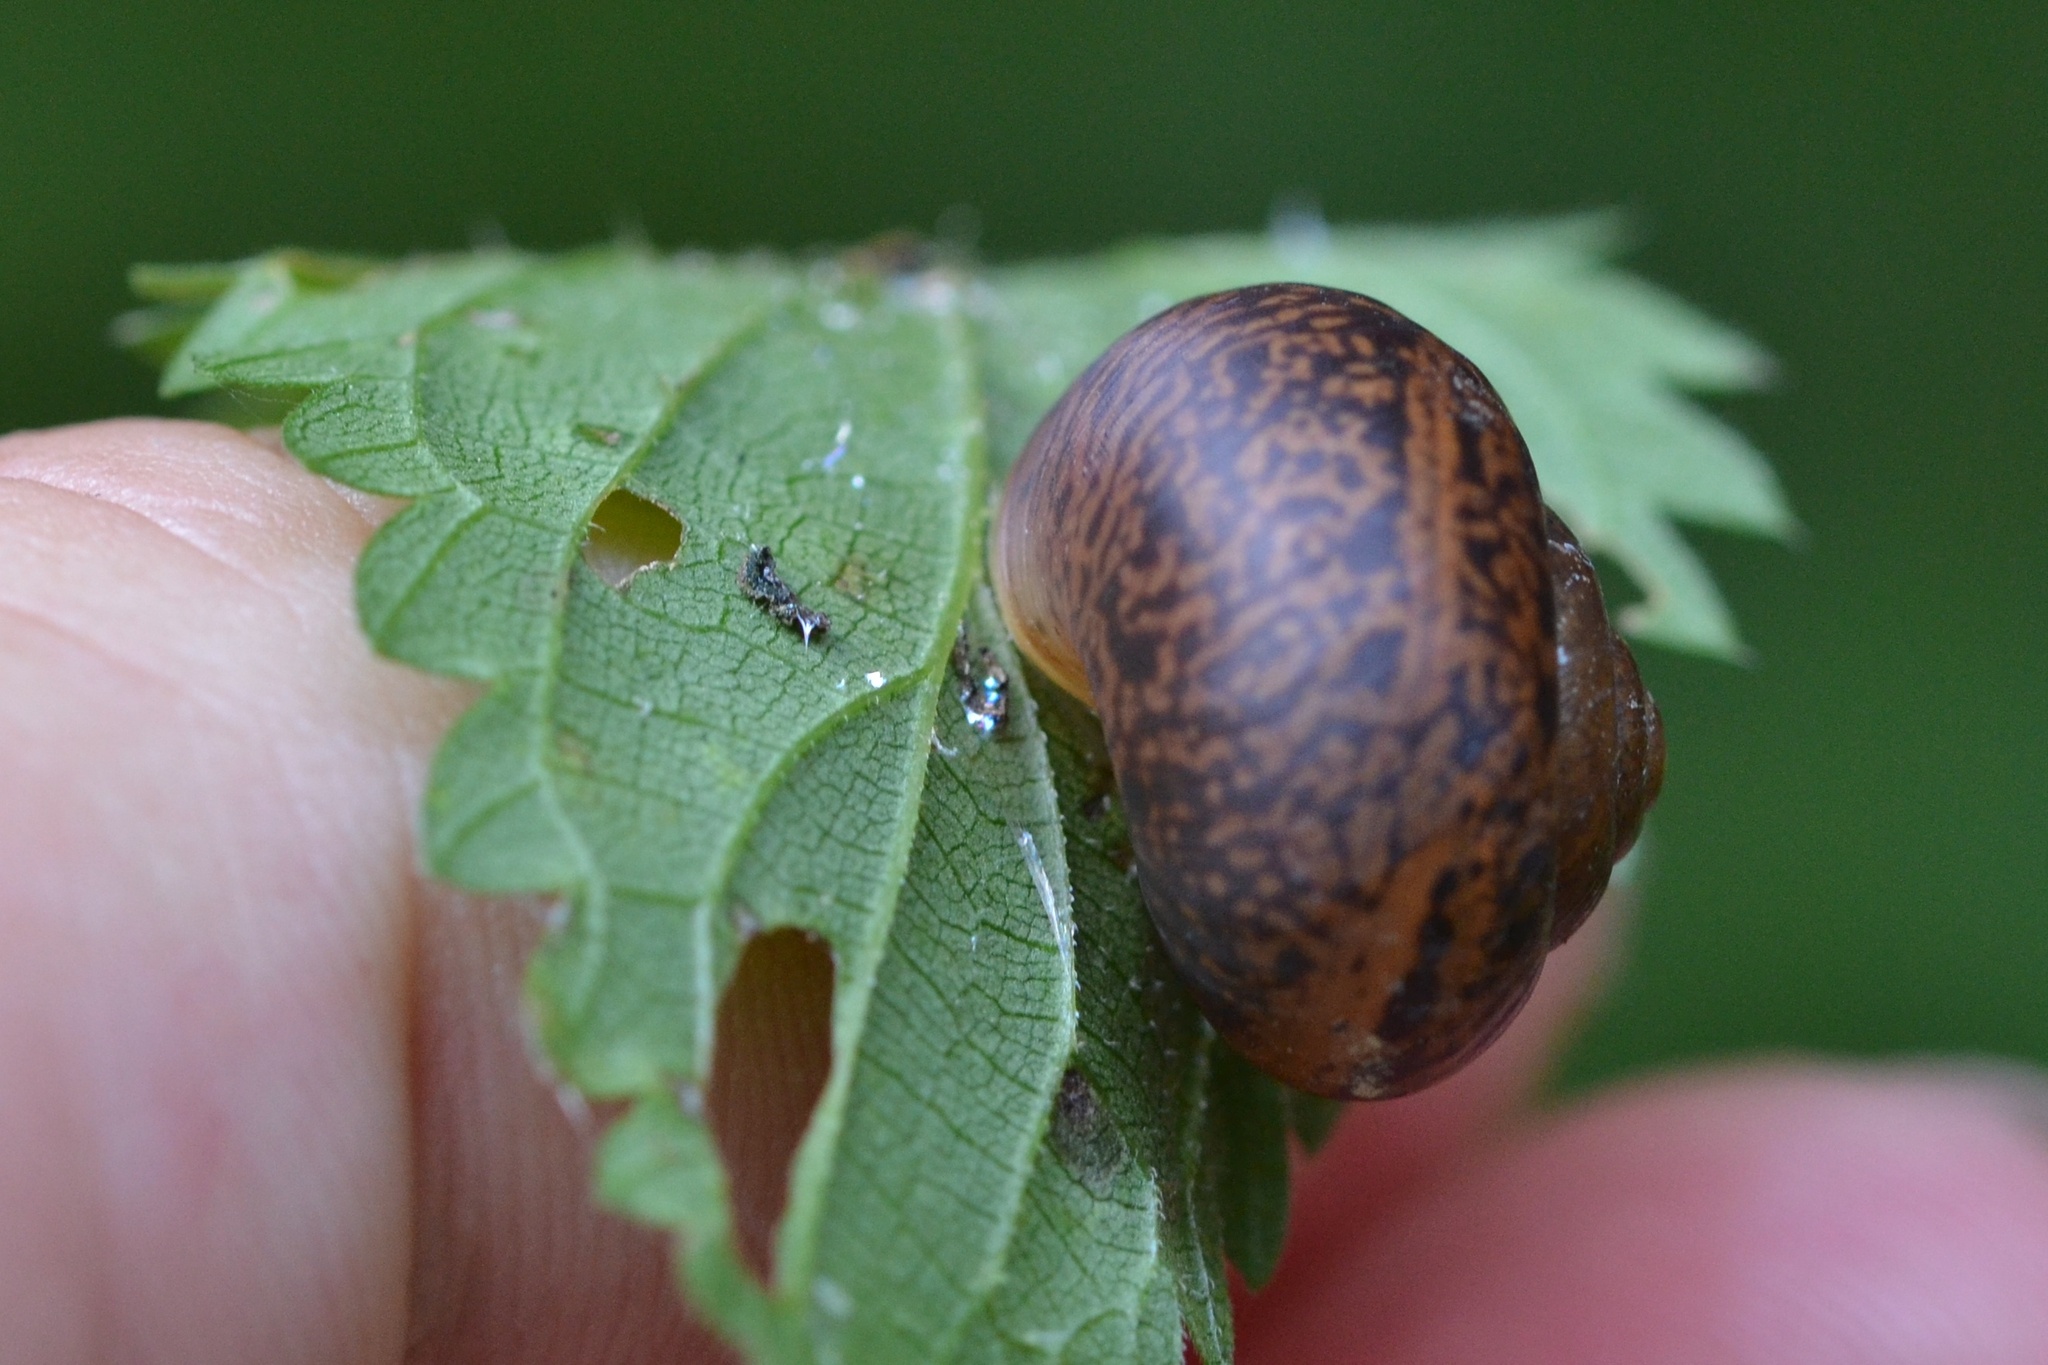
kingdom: Animalia
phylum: Mollusca
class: Gastropoda
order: Stylommatophora
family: Camaenidae
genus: Fruticicola
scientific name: Fruticicola fruticum
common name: Bush snail
